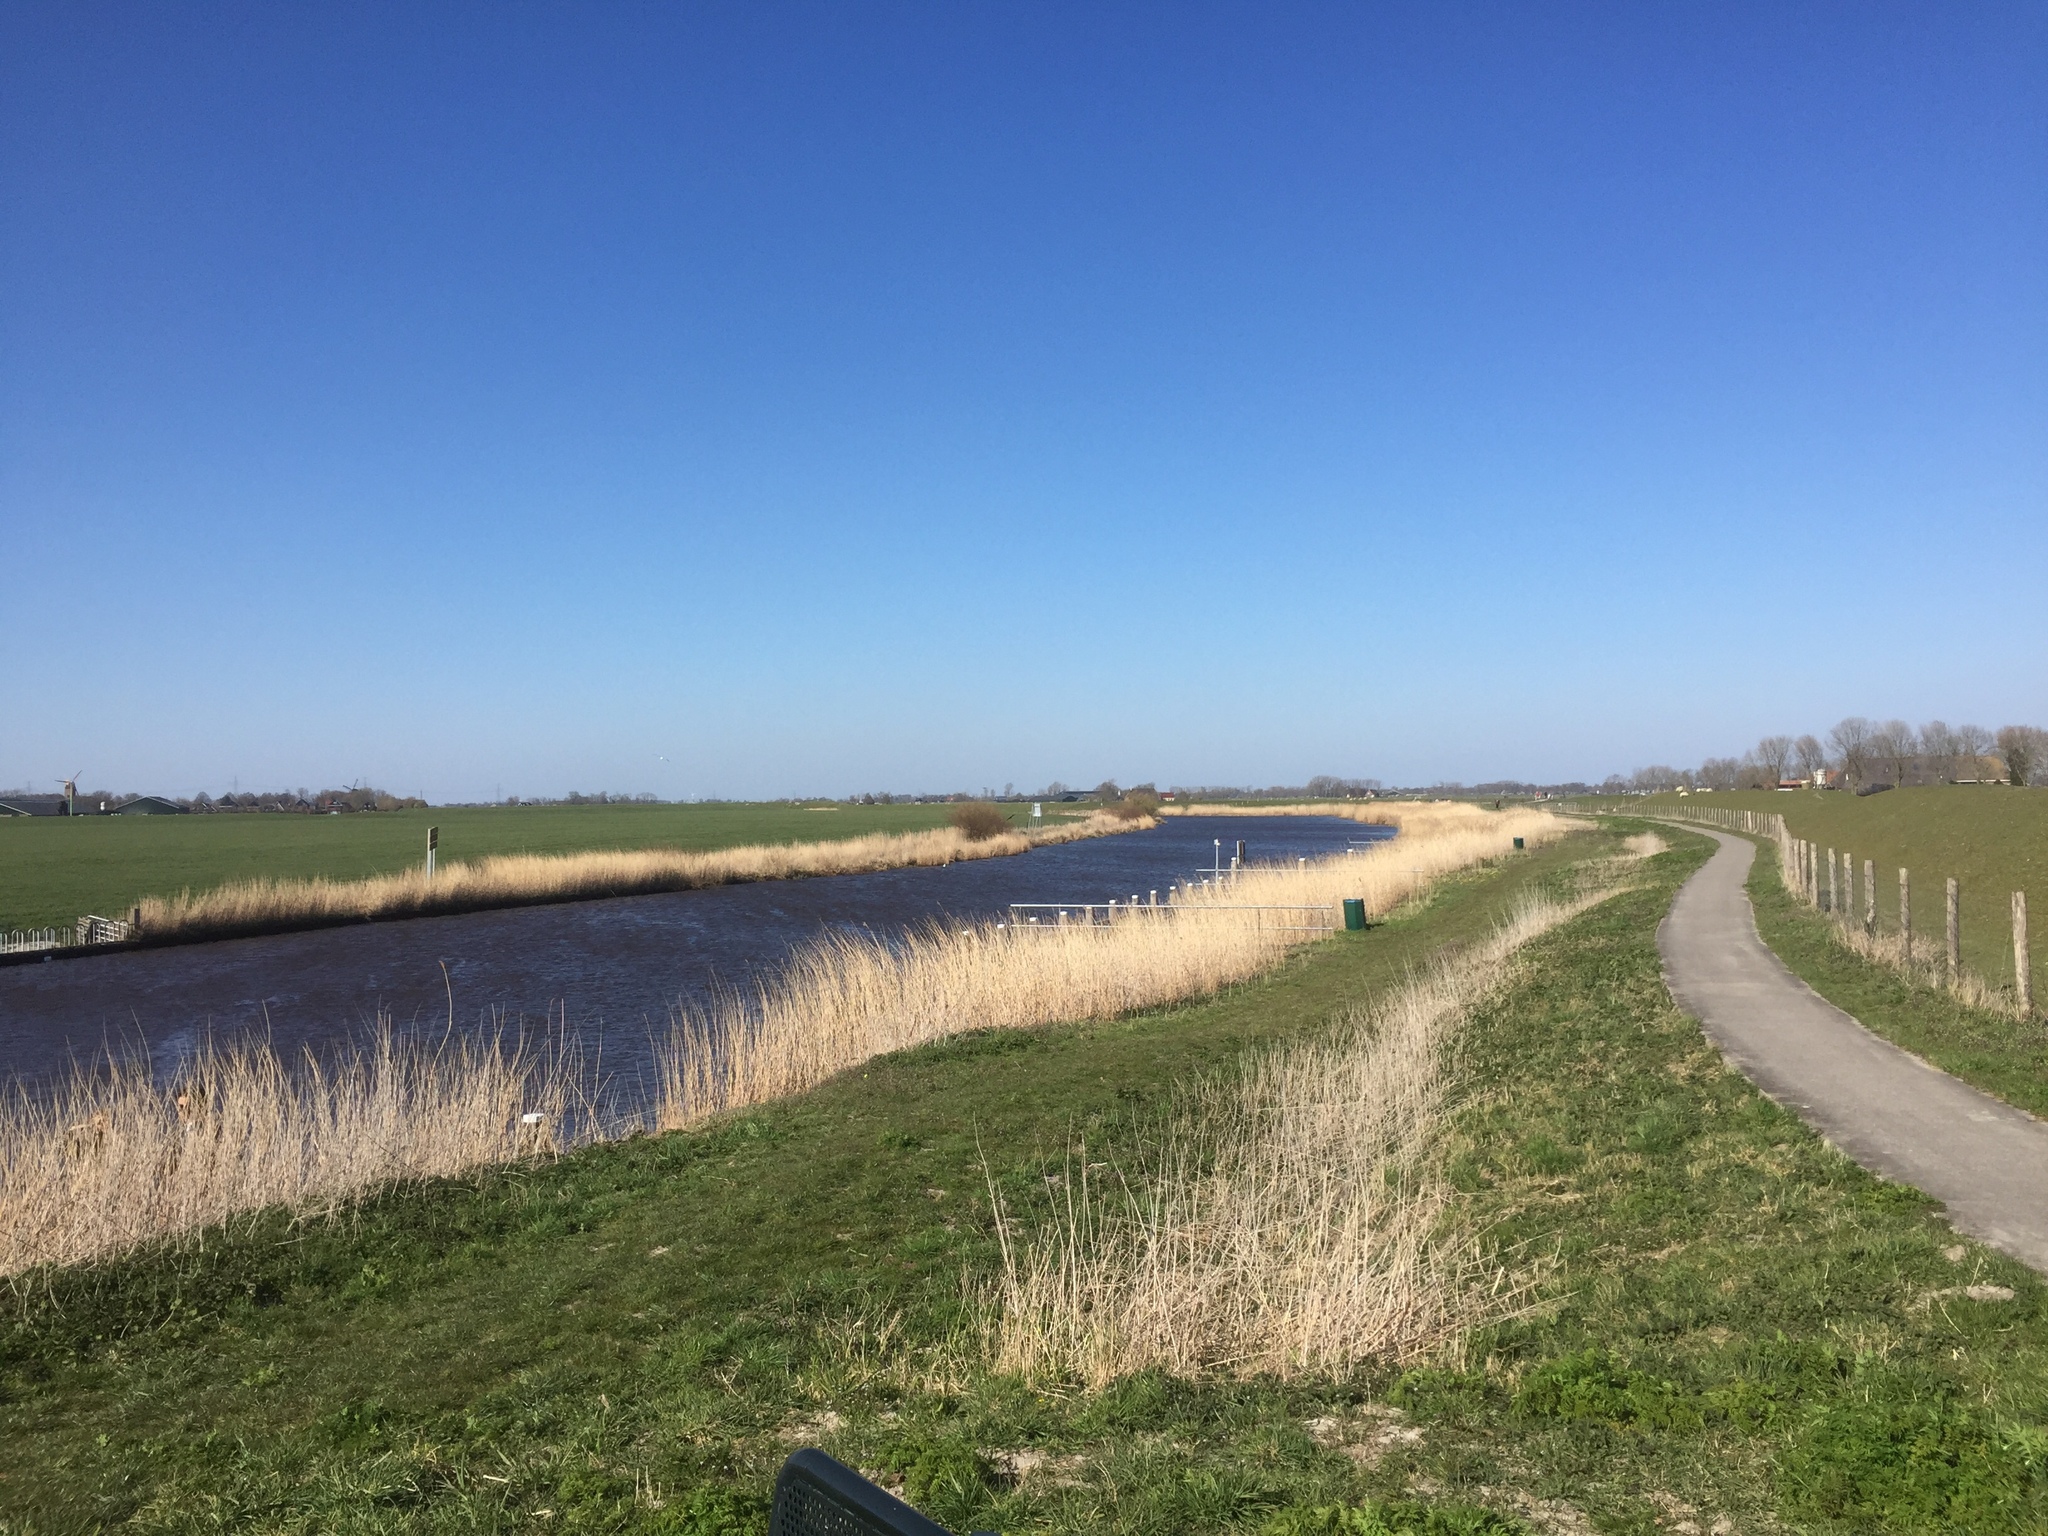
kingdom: Plantae
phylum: Tracheophyta
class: Liliopsida
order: Poales
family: Poaceae
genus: Phragmites
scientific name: Phragmites australis
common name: Common reed
